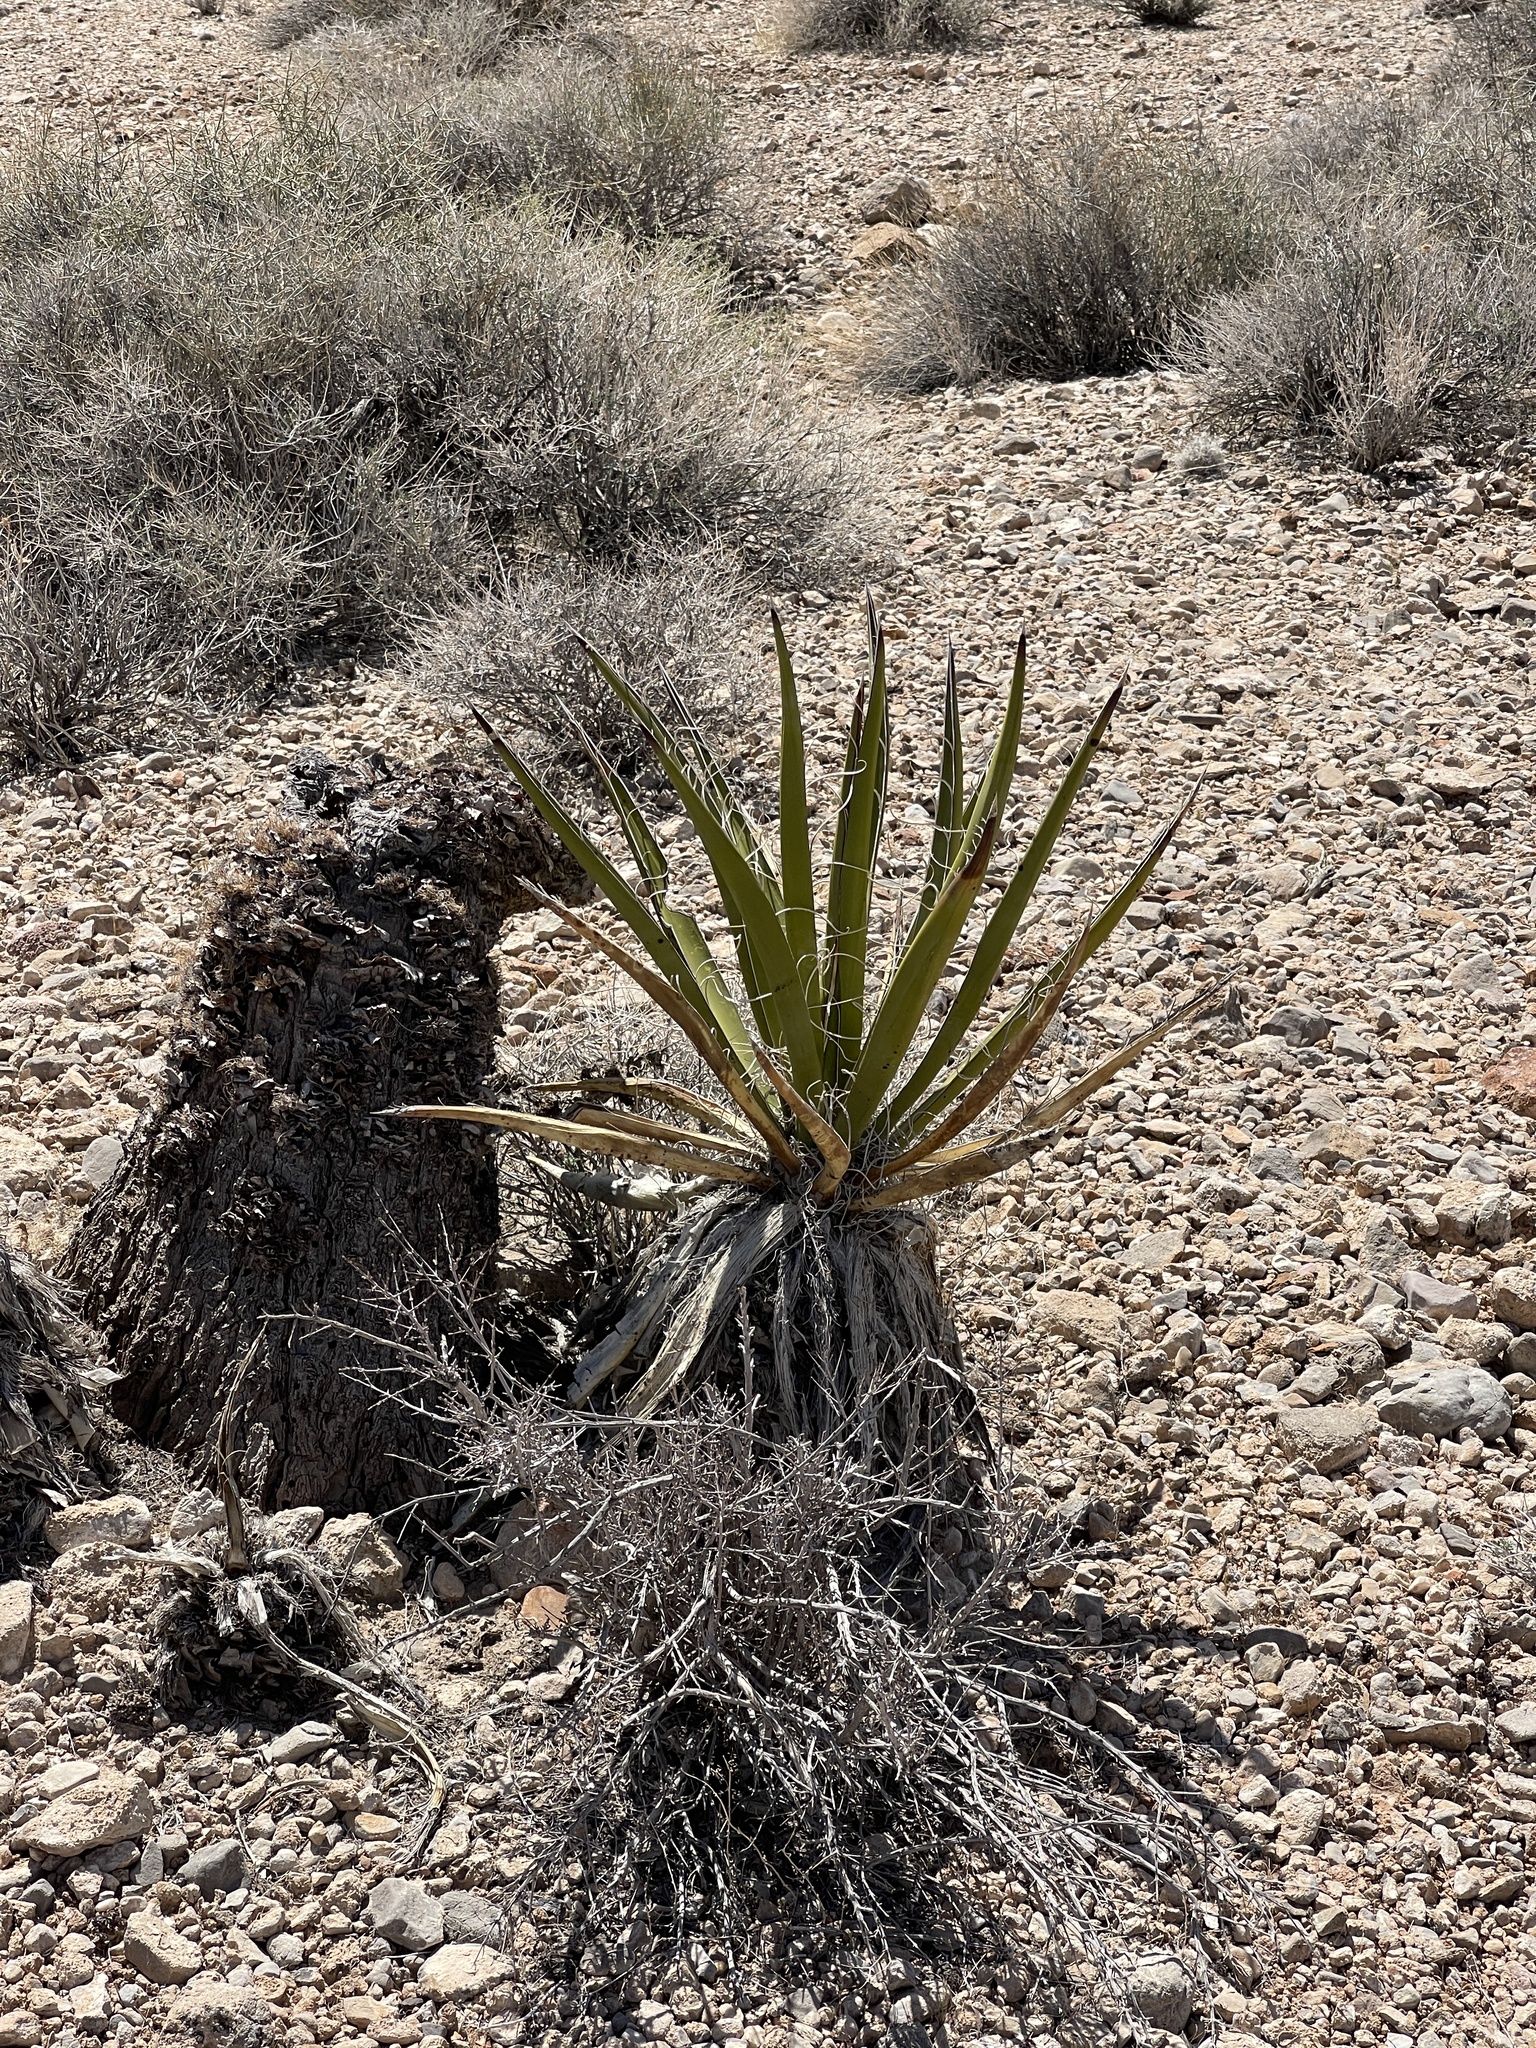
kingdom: Plantae
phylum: Tracheophyta
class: Liliopsida
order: Asparagales
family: Asparagaceae
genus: Yucca
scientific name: Yucca schidigera
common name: Mojave yucca
